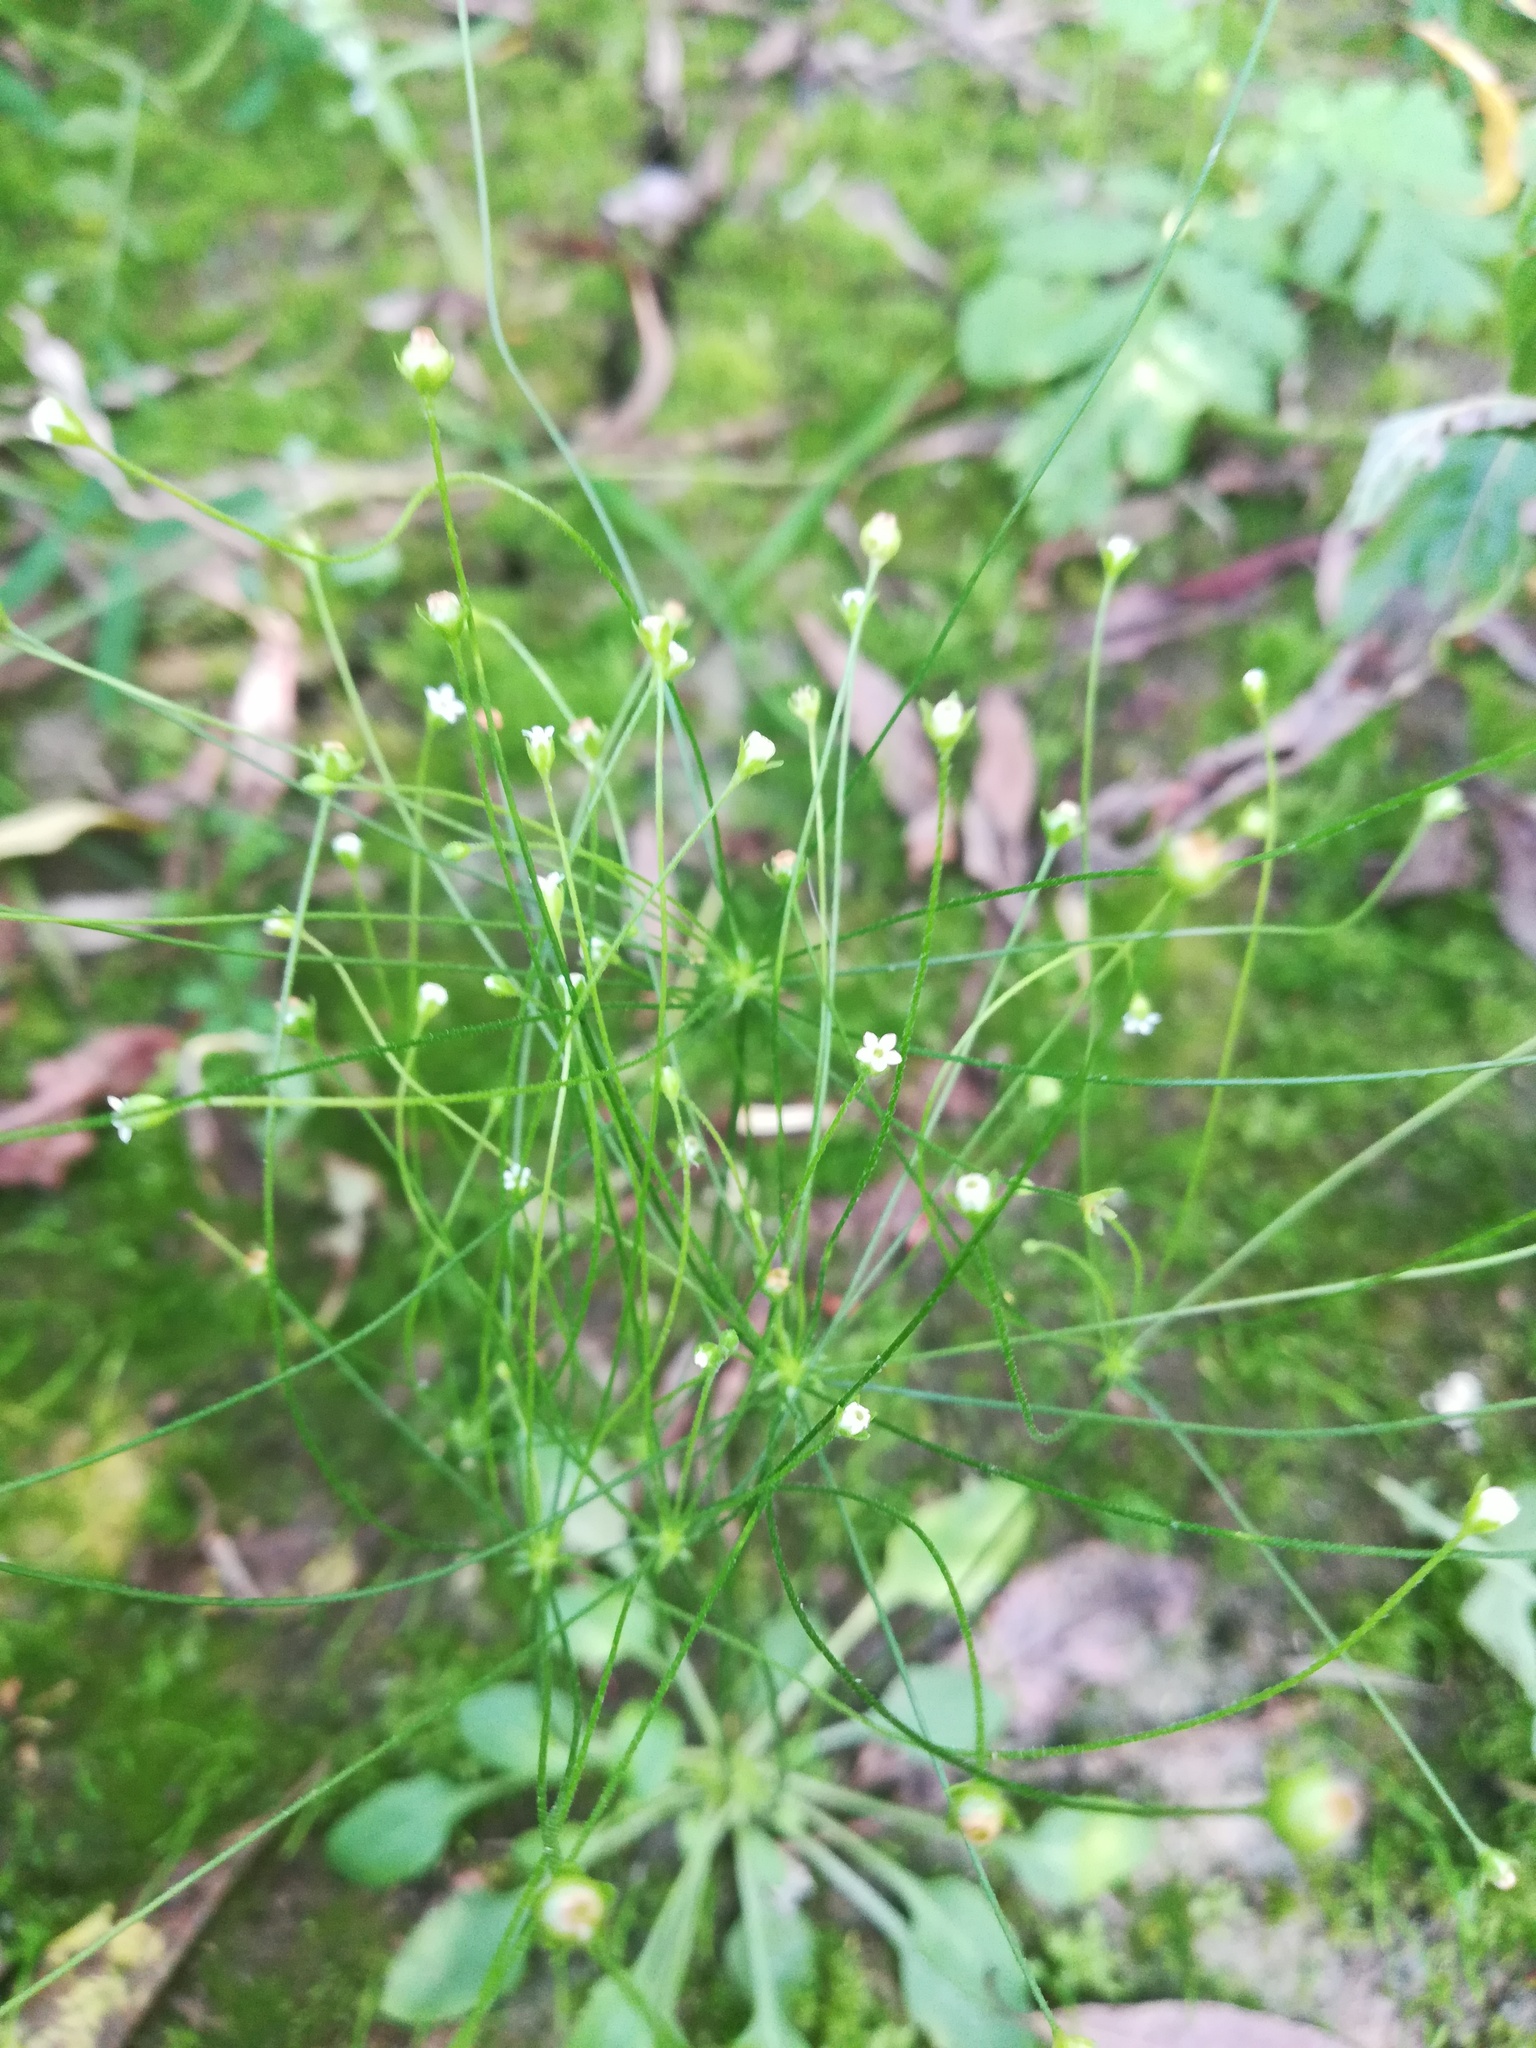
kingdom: Plantae
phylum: Tracheophyta
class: Magnoliopsida
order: Ericales
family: Primulaceae
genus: Androsace
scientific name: Androsace filiformis
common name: Filiform rock jasmine
